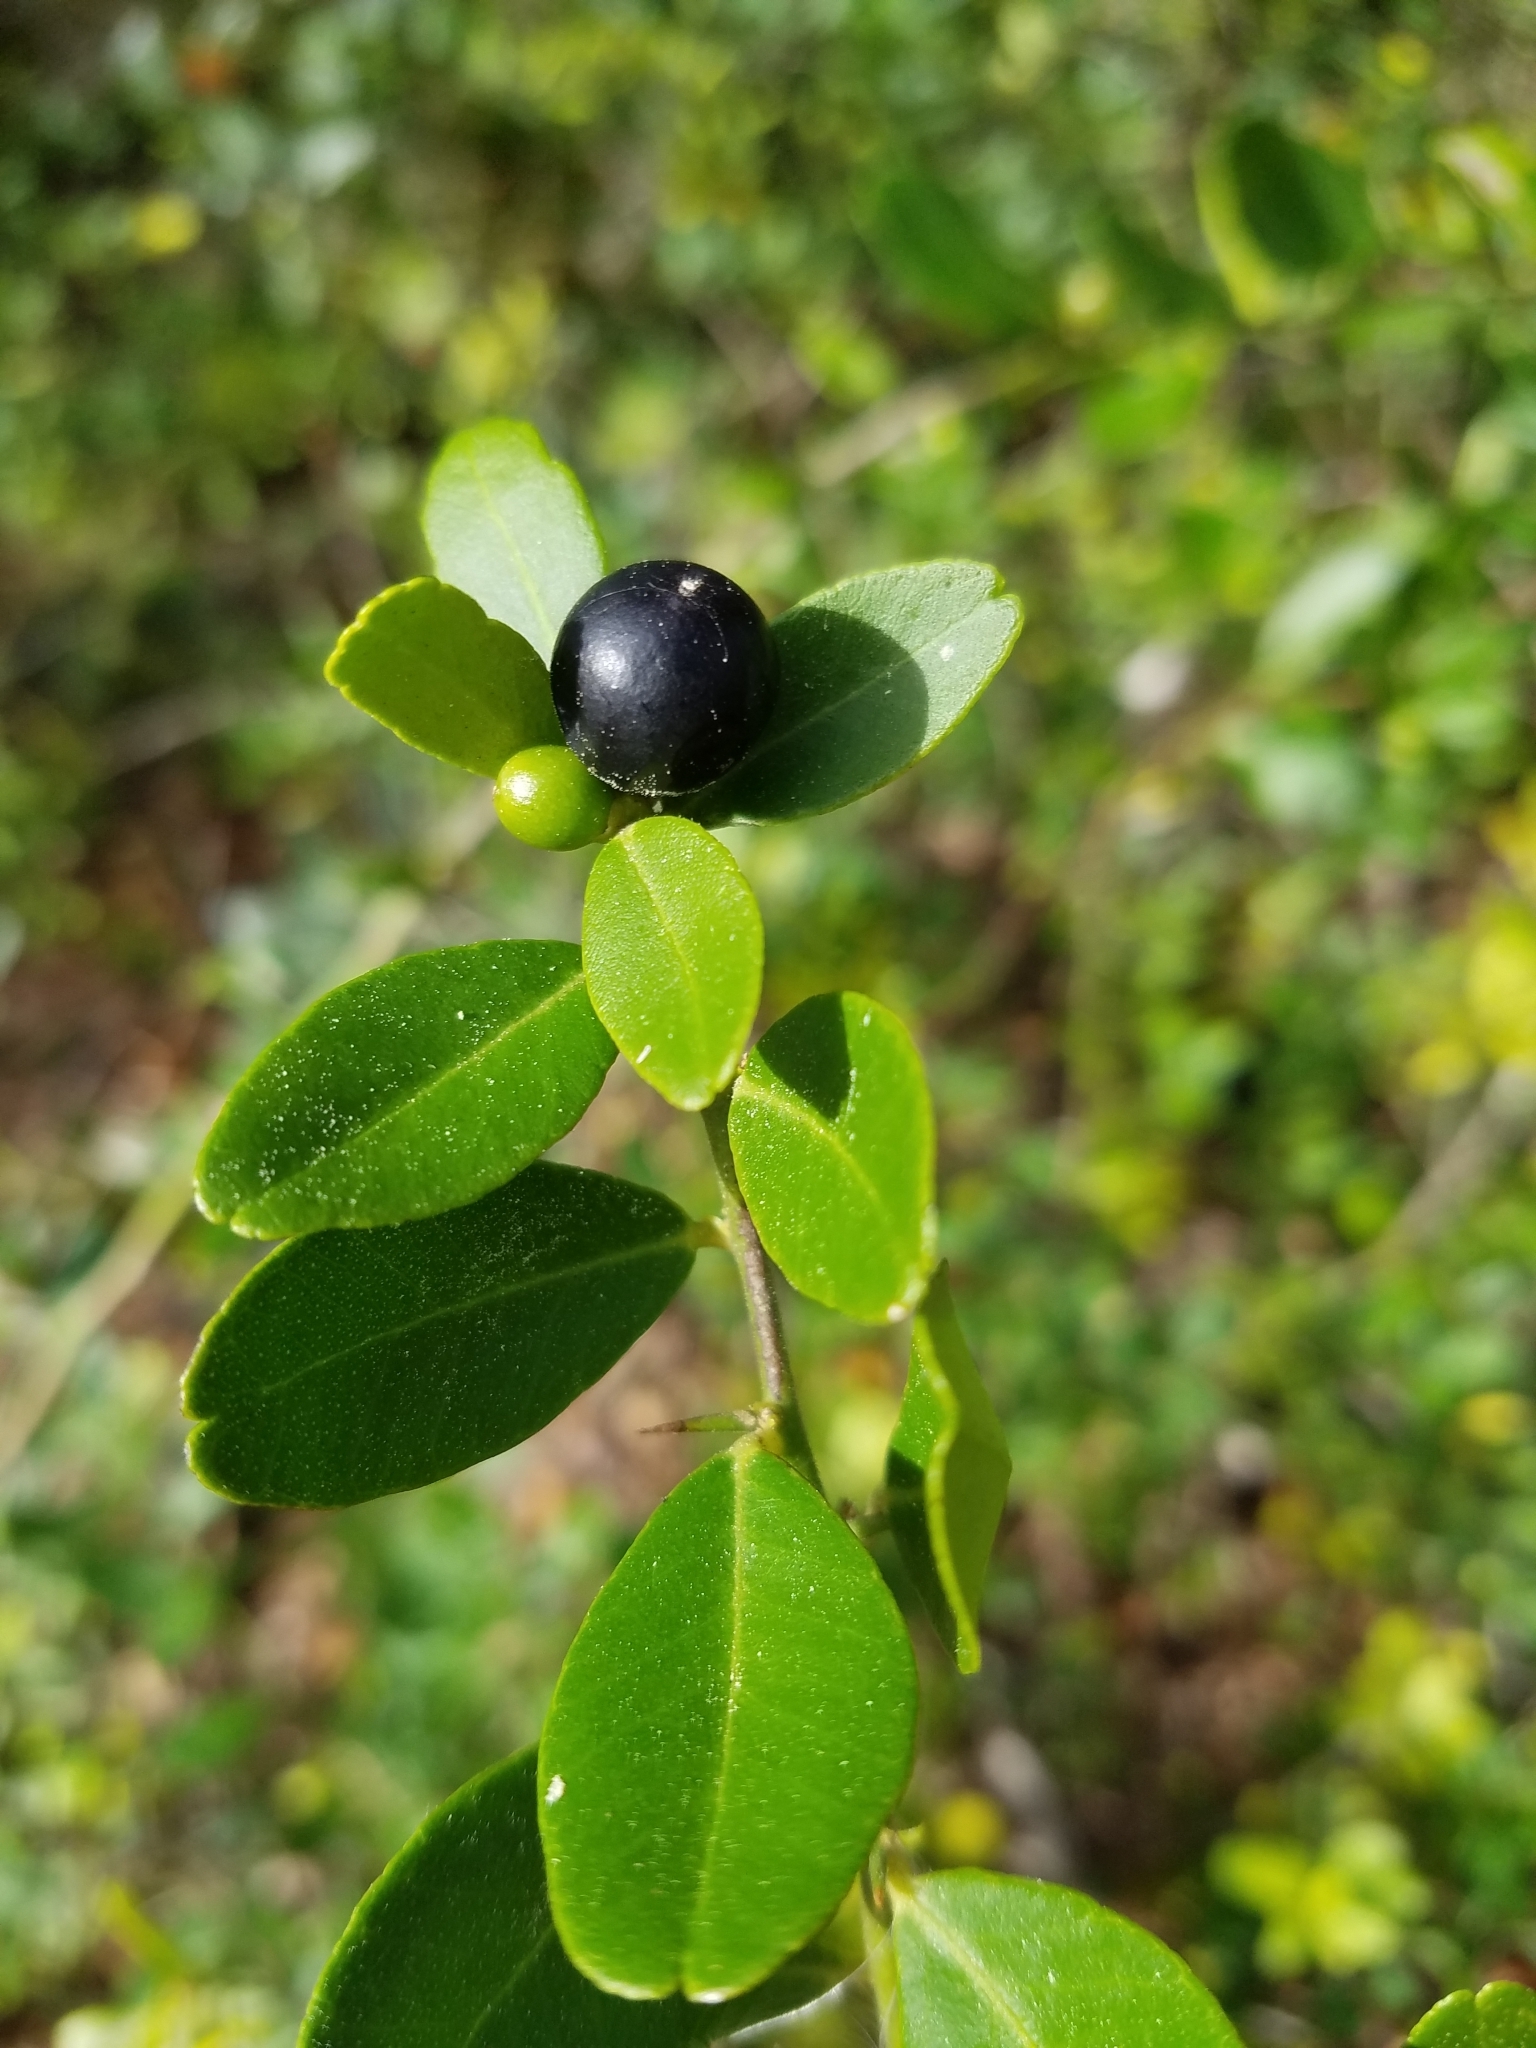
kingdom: Plantae
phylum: Tracheophyta
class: Magnoliopsida
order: Sapindales
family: Rutaceae
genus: Atalantia
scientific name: Atalantia buxifolia
